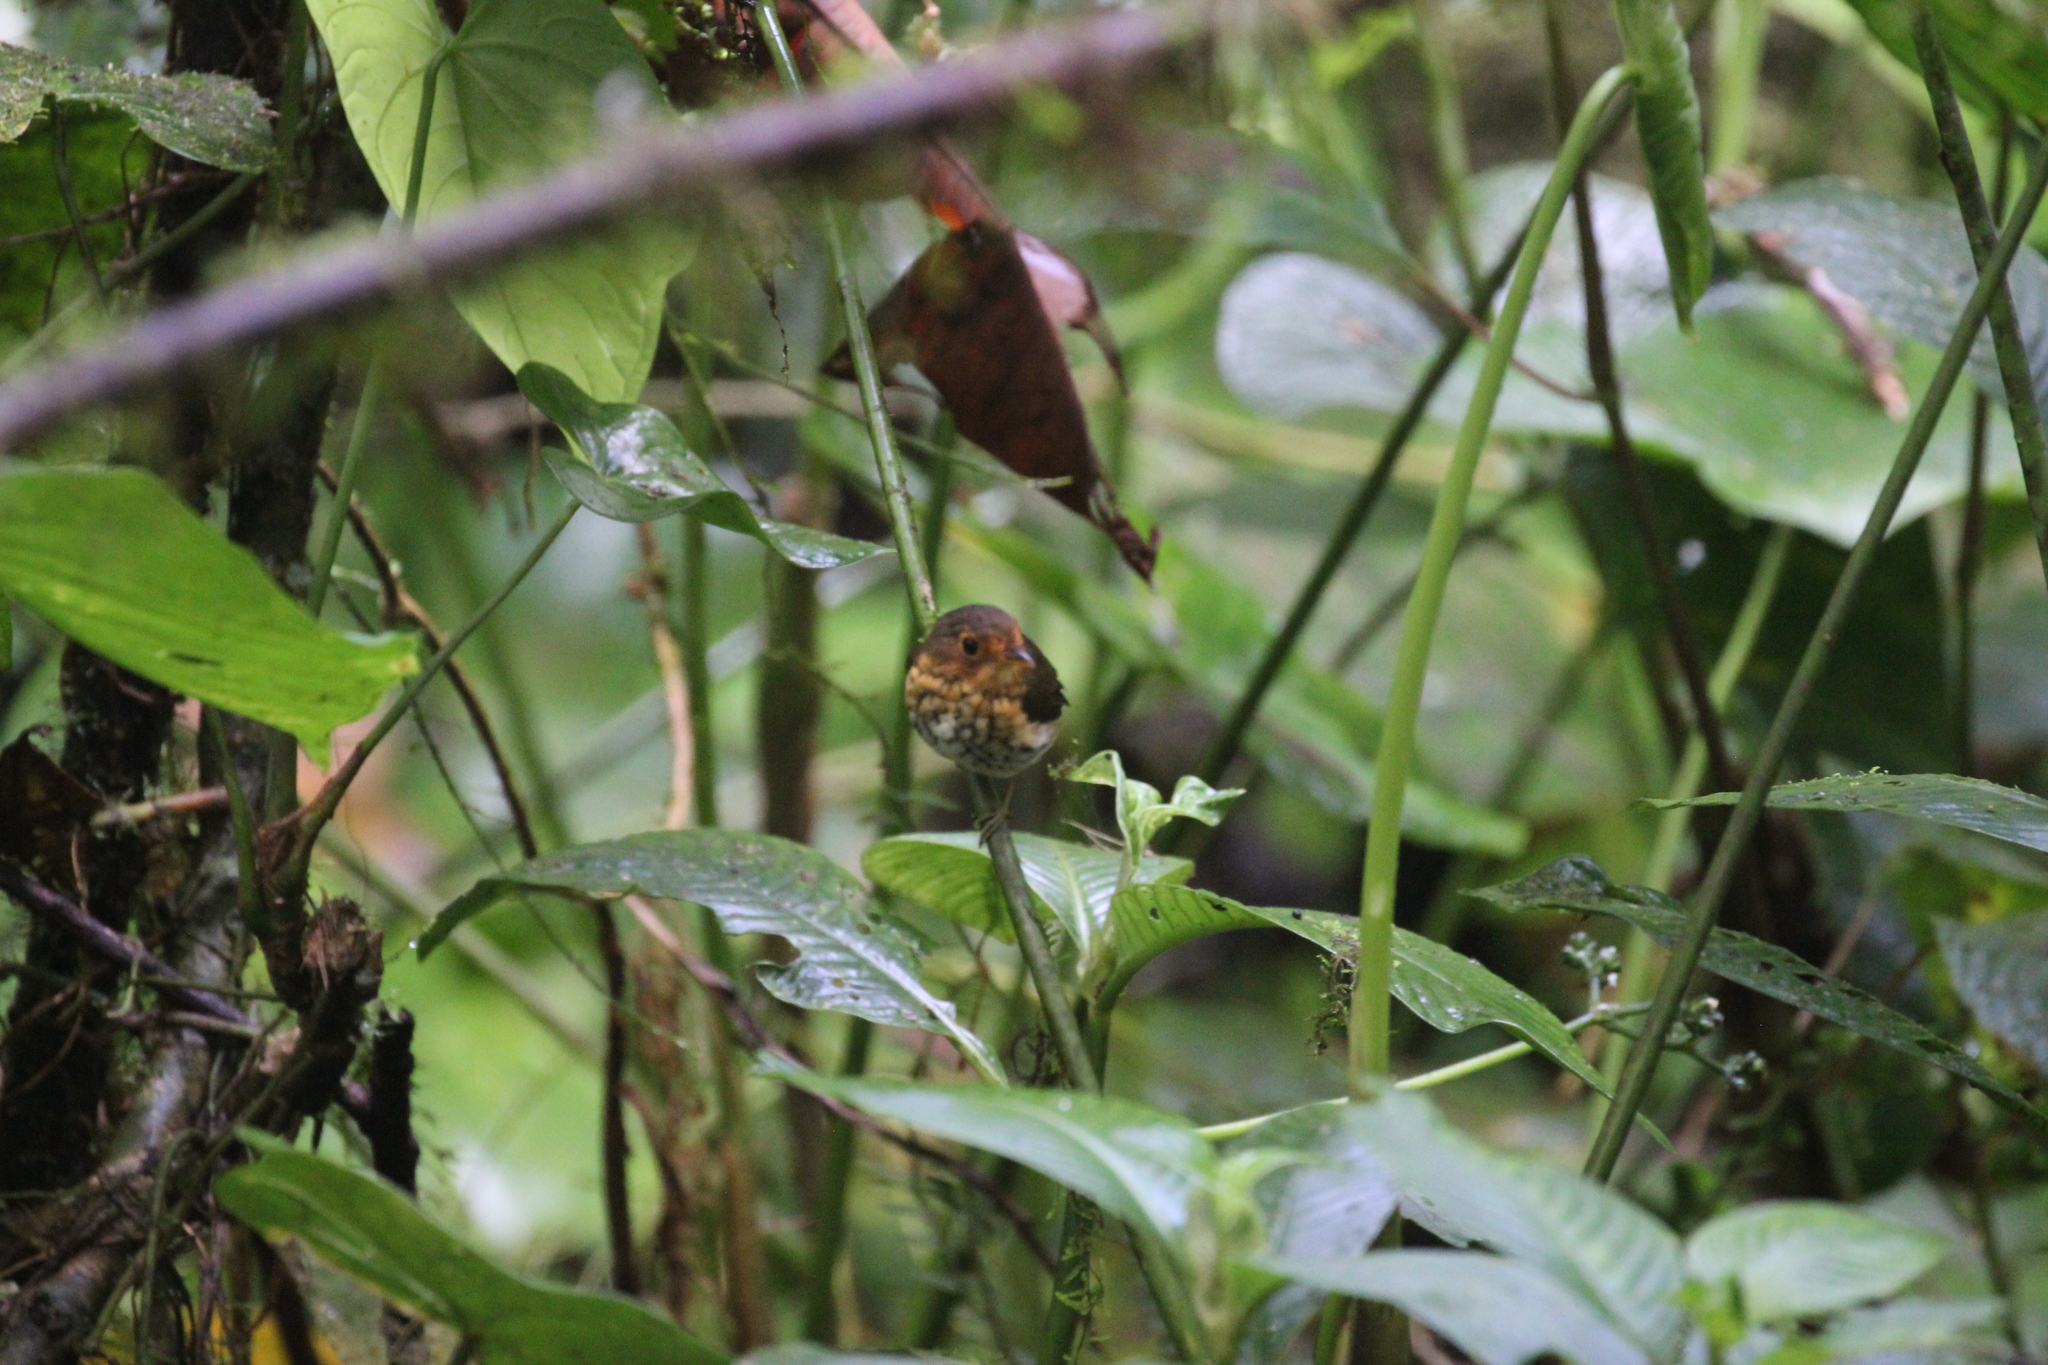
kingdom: Animalia
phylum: Chordata
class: Aves
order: Passeriformes
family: Grallariidae
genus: Grallaricula
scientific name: Grallaricula flavirostris
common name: Ochre-breasted antpitta
